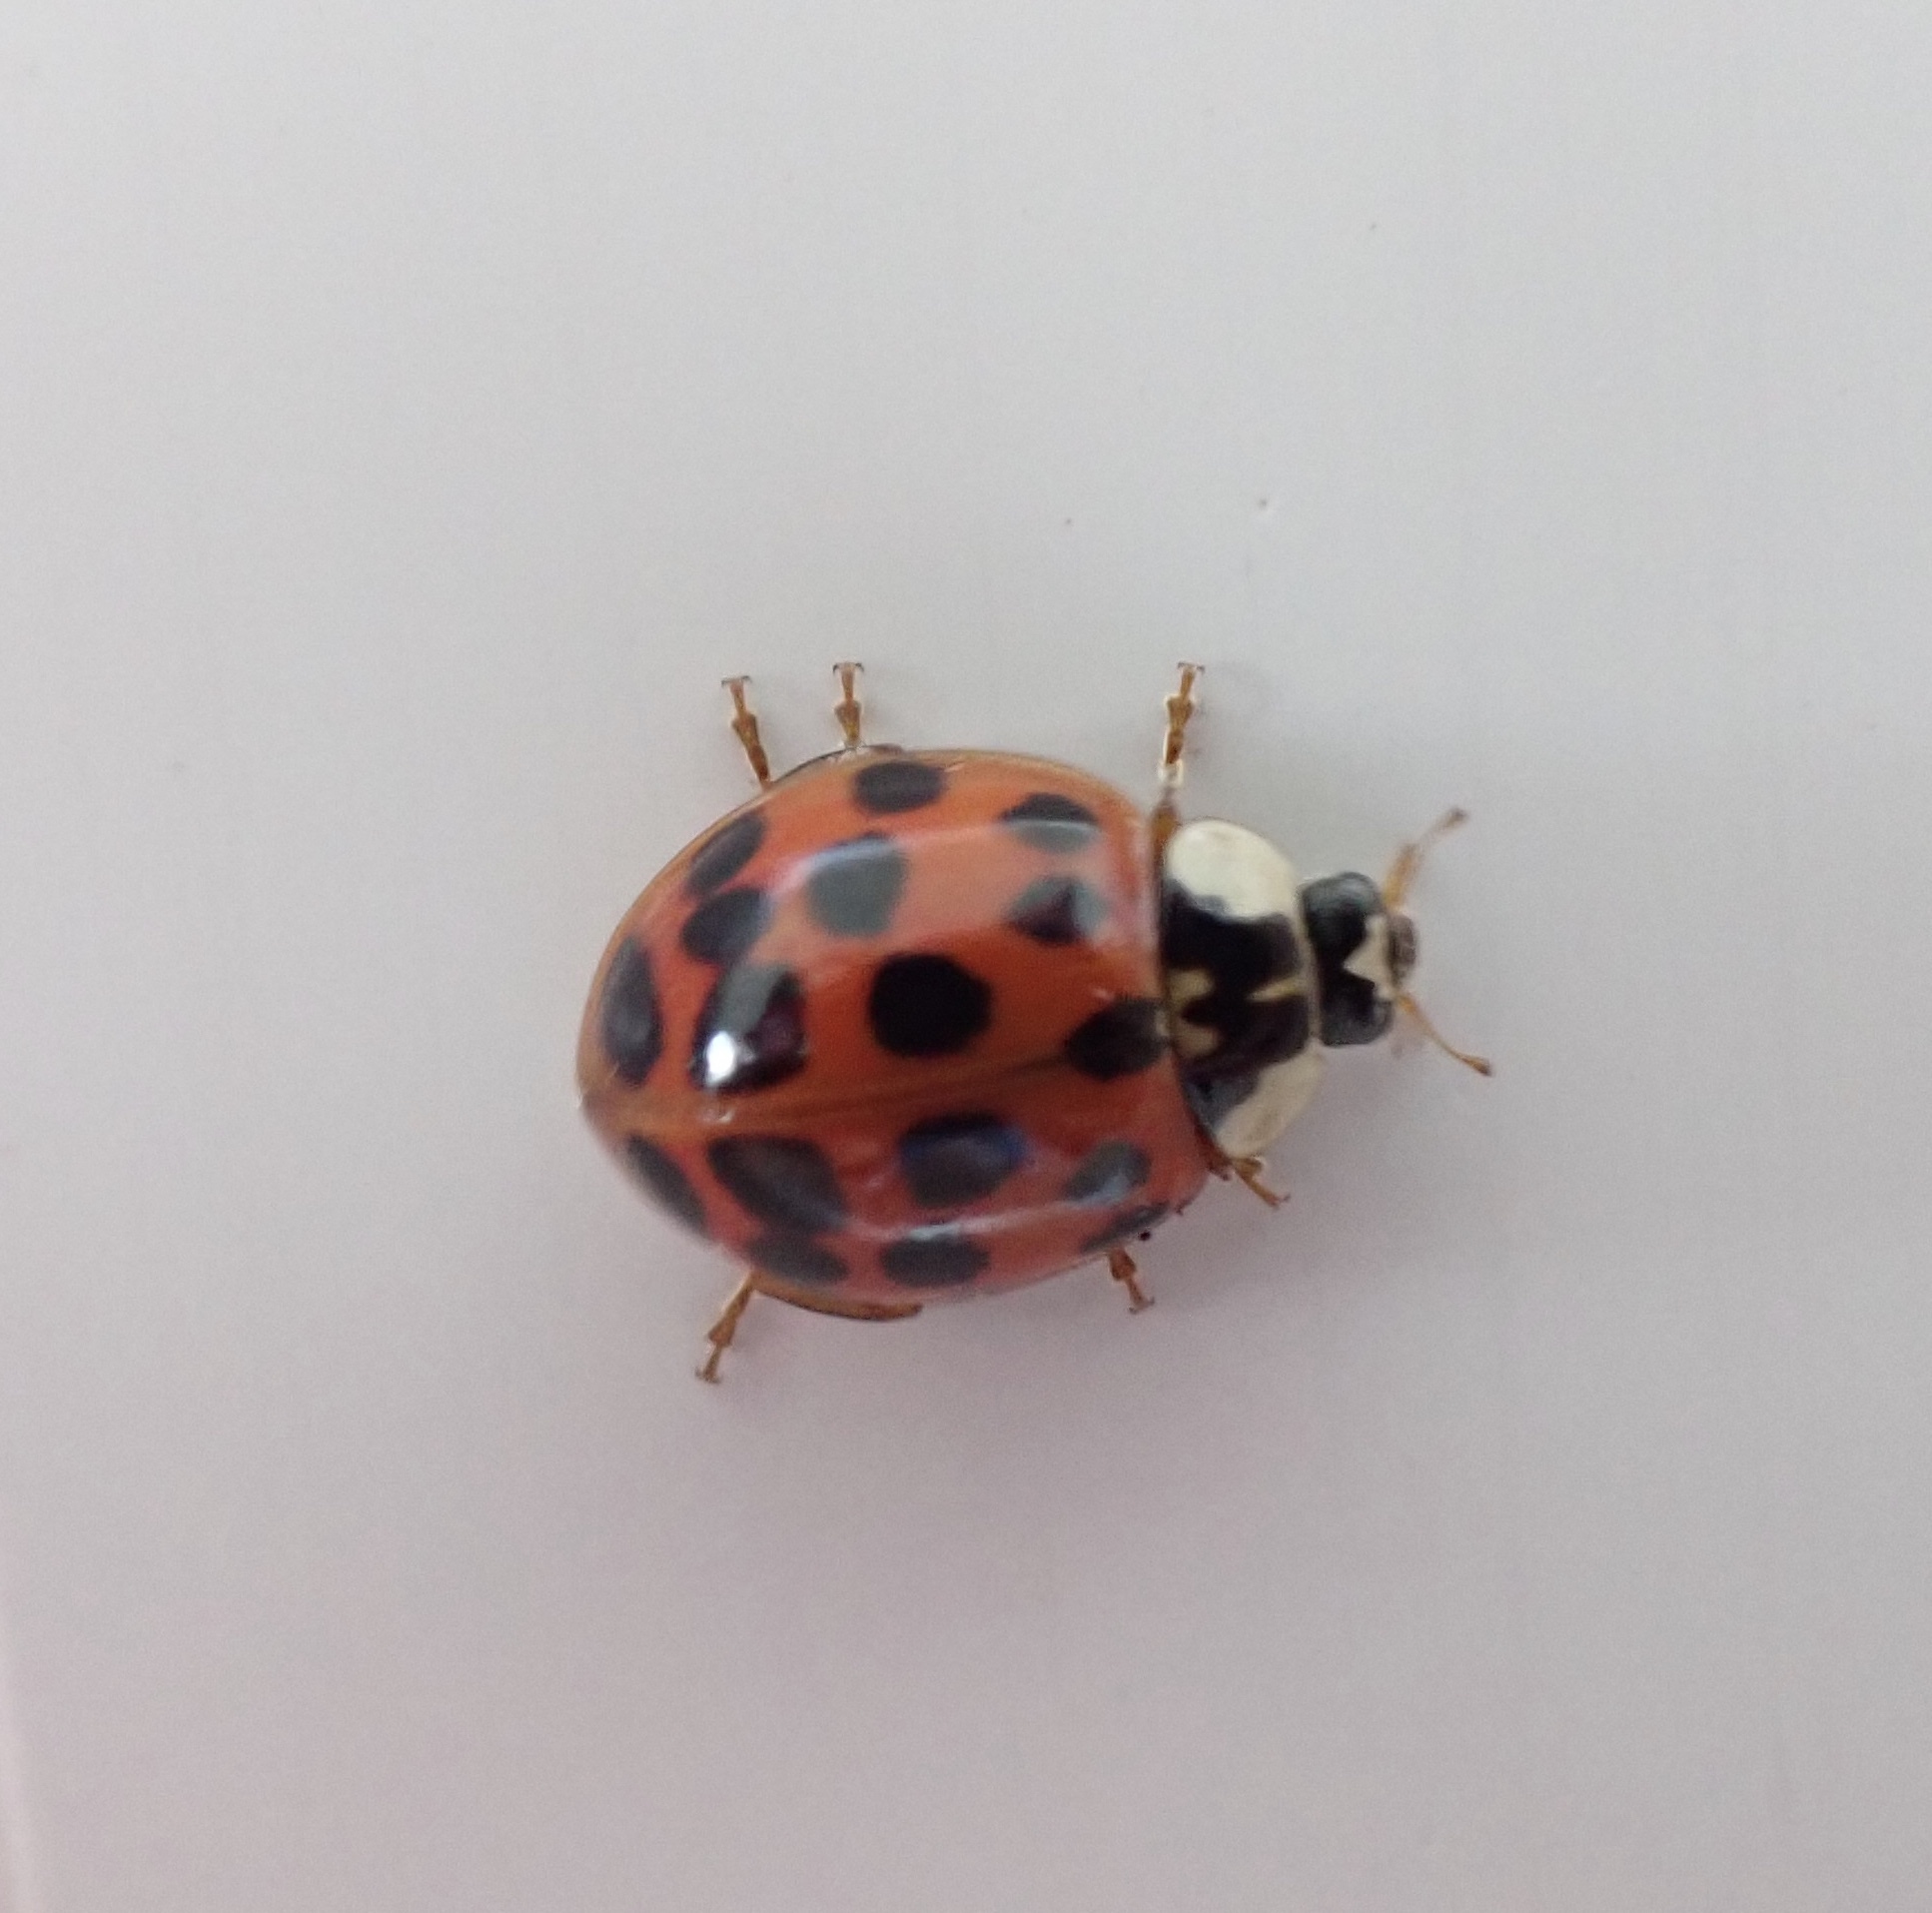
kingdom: Animalia
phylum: Arthropoda
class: Insecta
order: Coleoptera
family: Coccinellidae
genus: Harmonia
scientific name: Harmonia axyridis
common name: Harlequin ladybird
